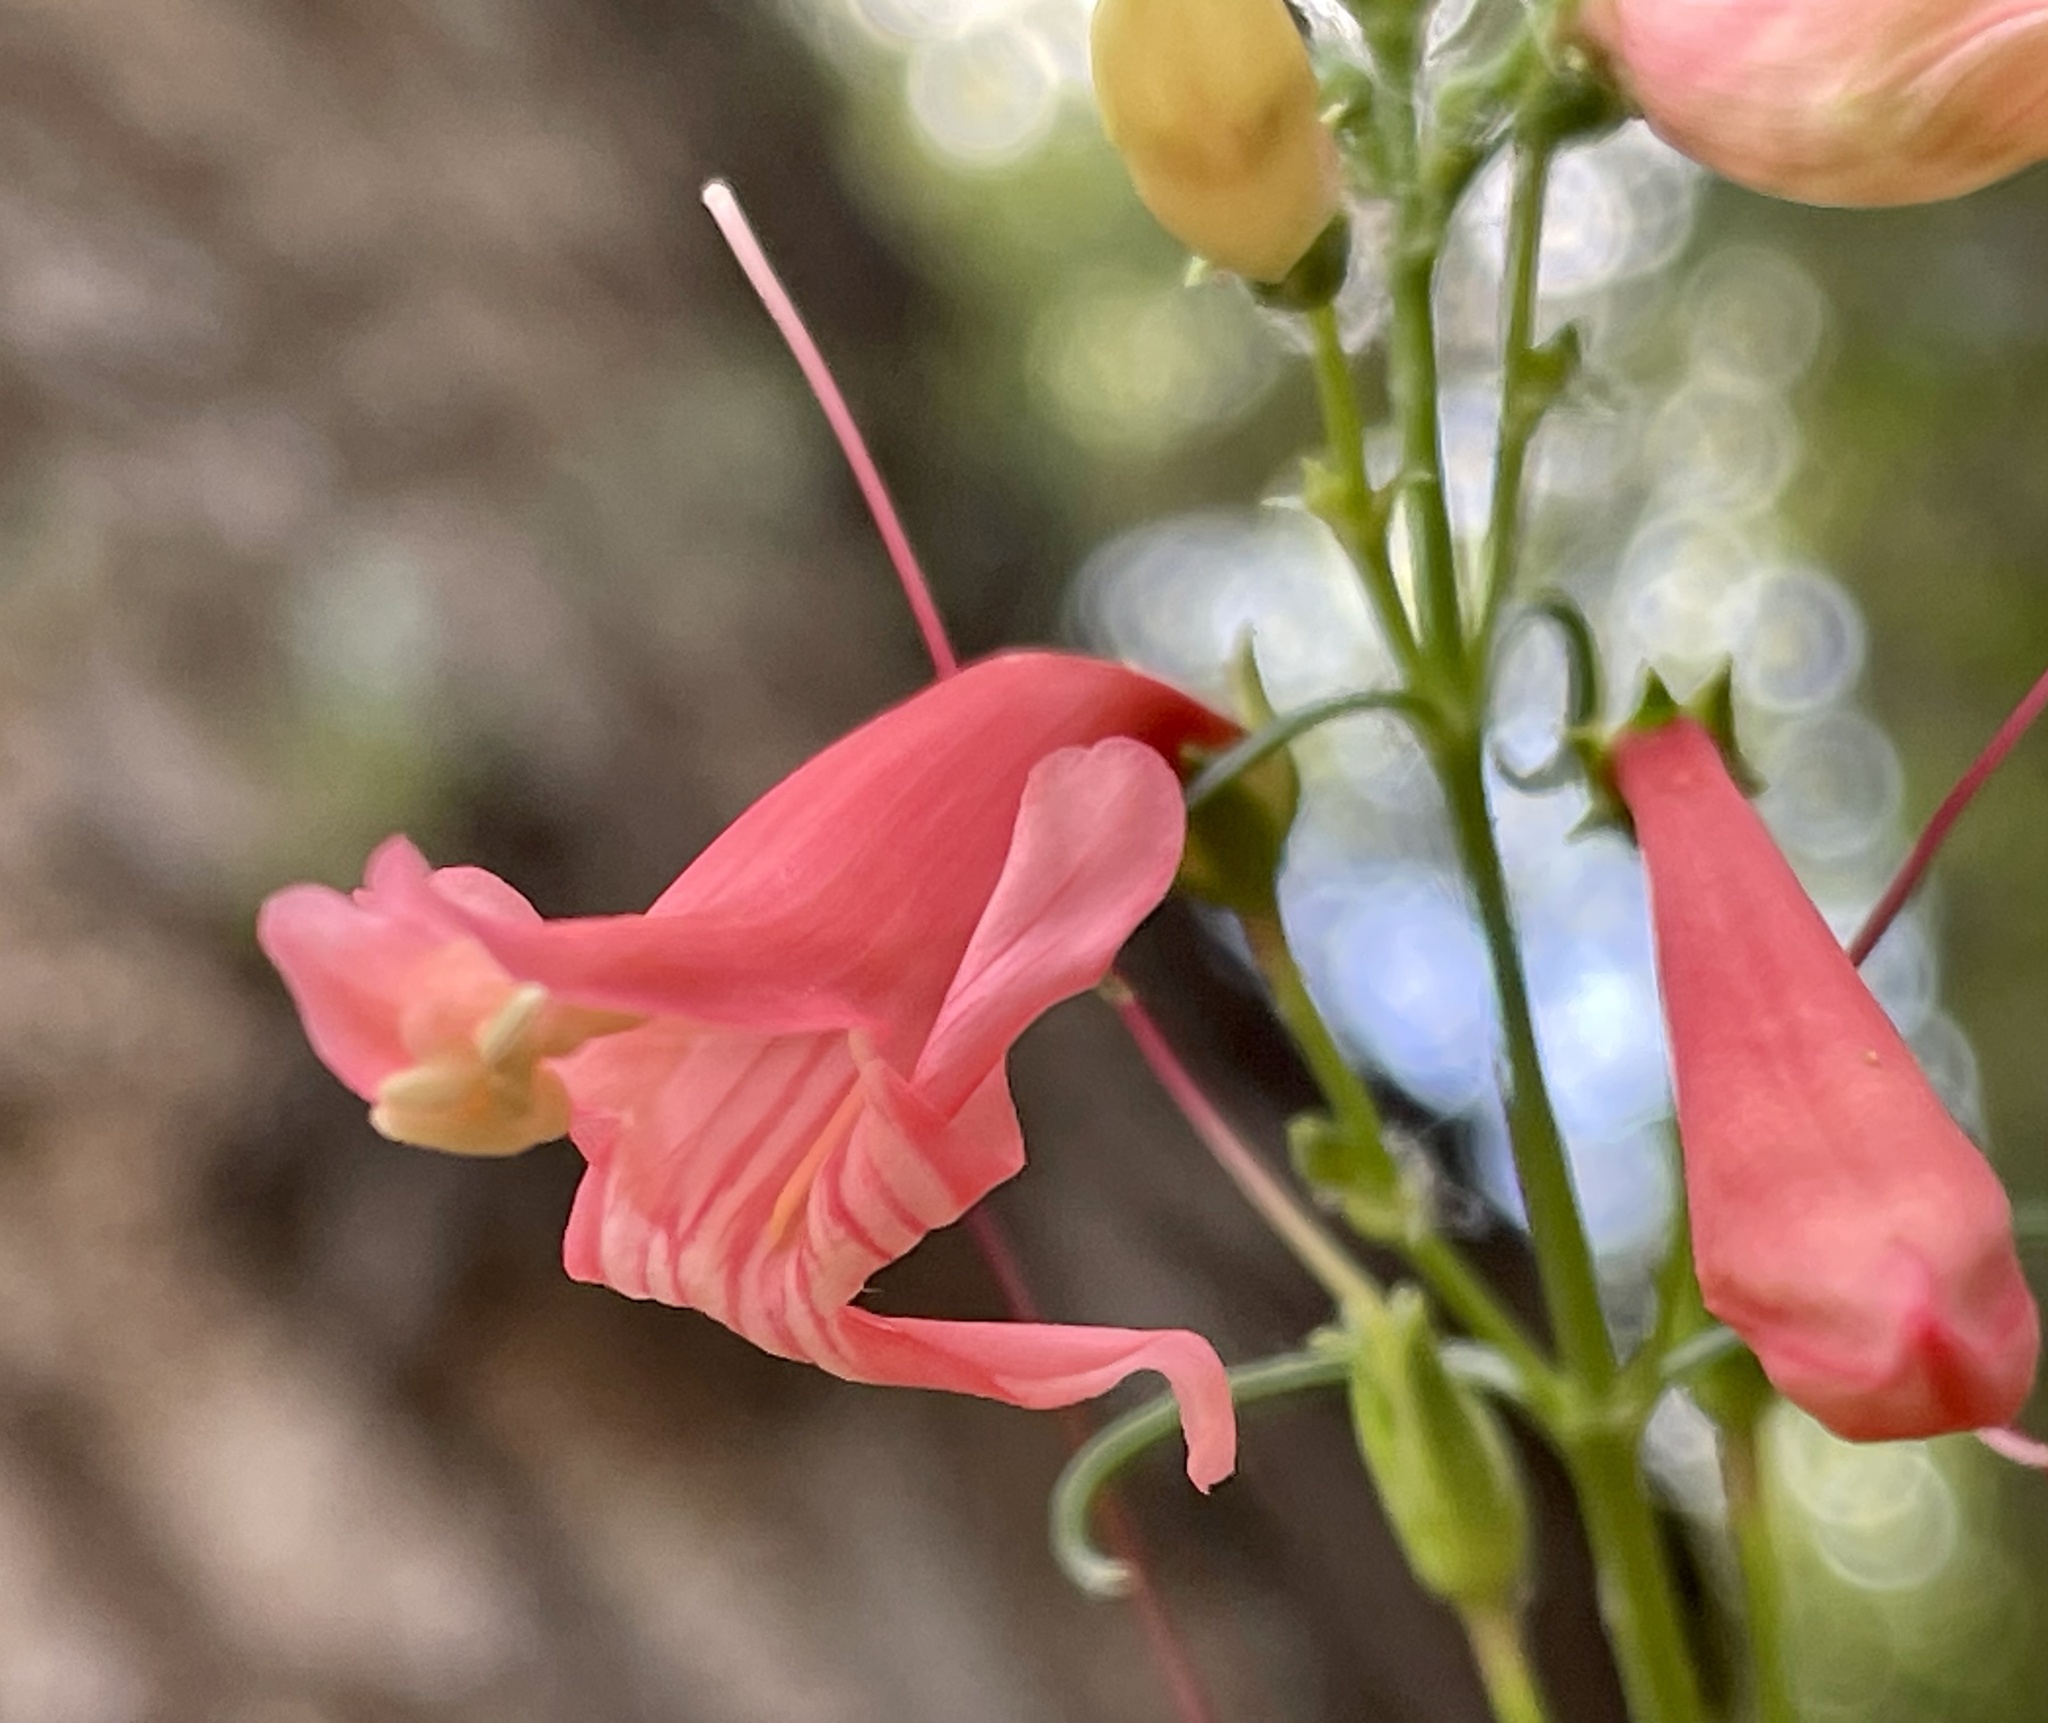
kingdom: Plantae
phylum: Tracheophyta
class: Magnoliopsida
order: Lamiales
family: Plantaginaceae
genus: Penstemon
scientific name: Penstemon barbatus
